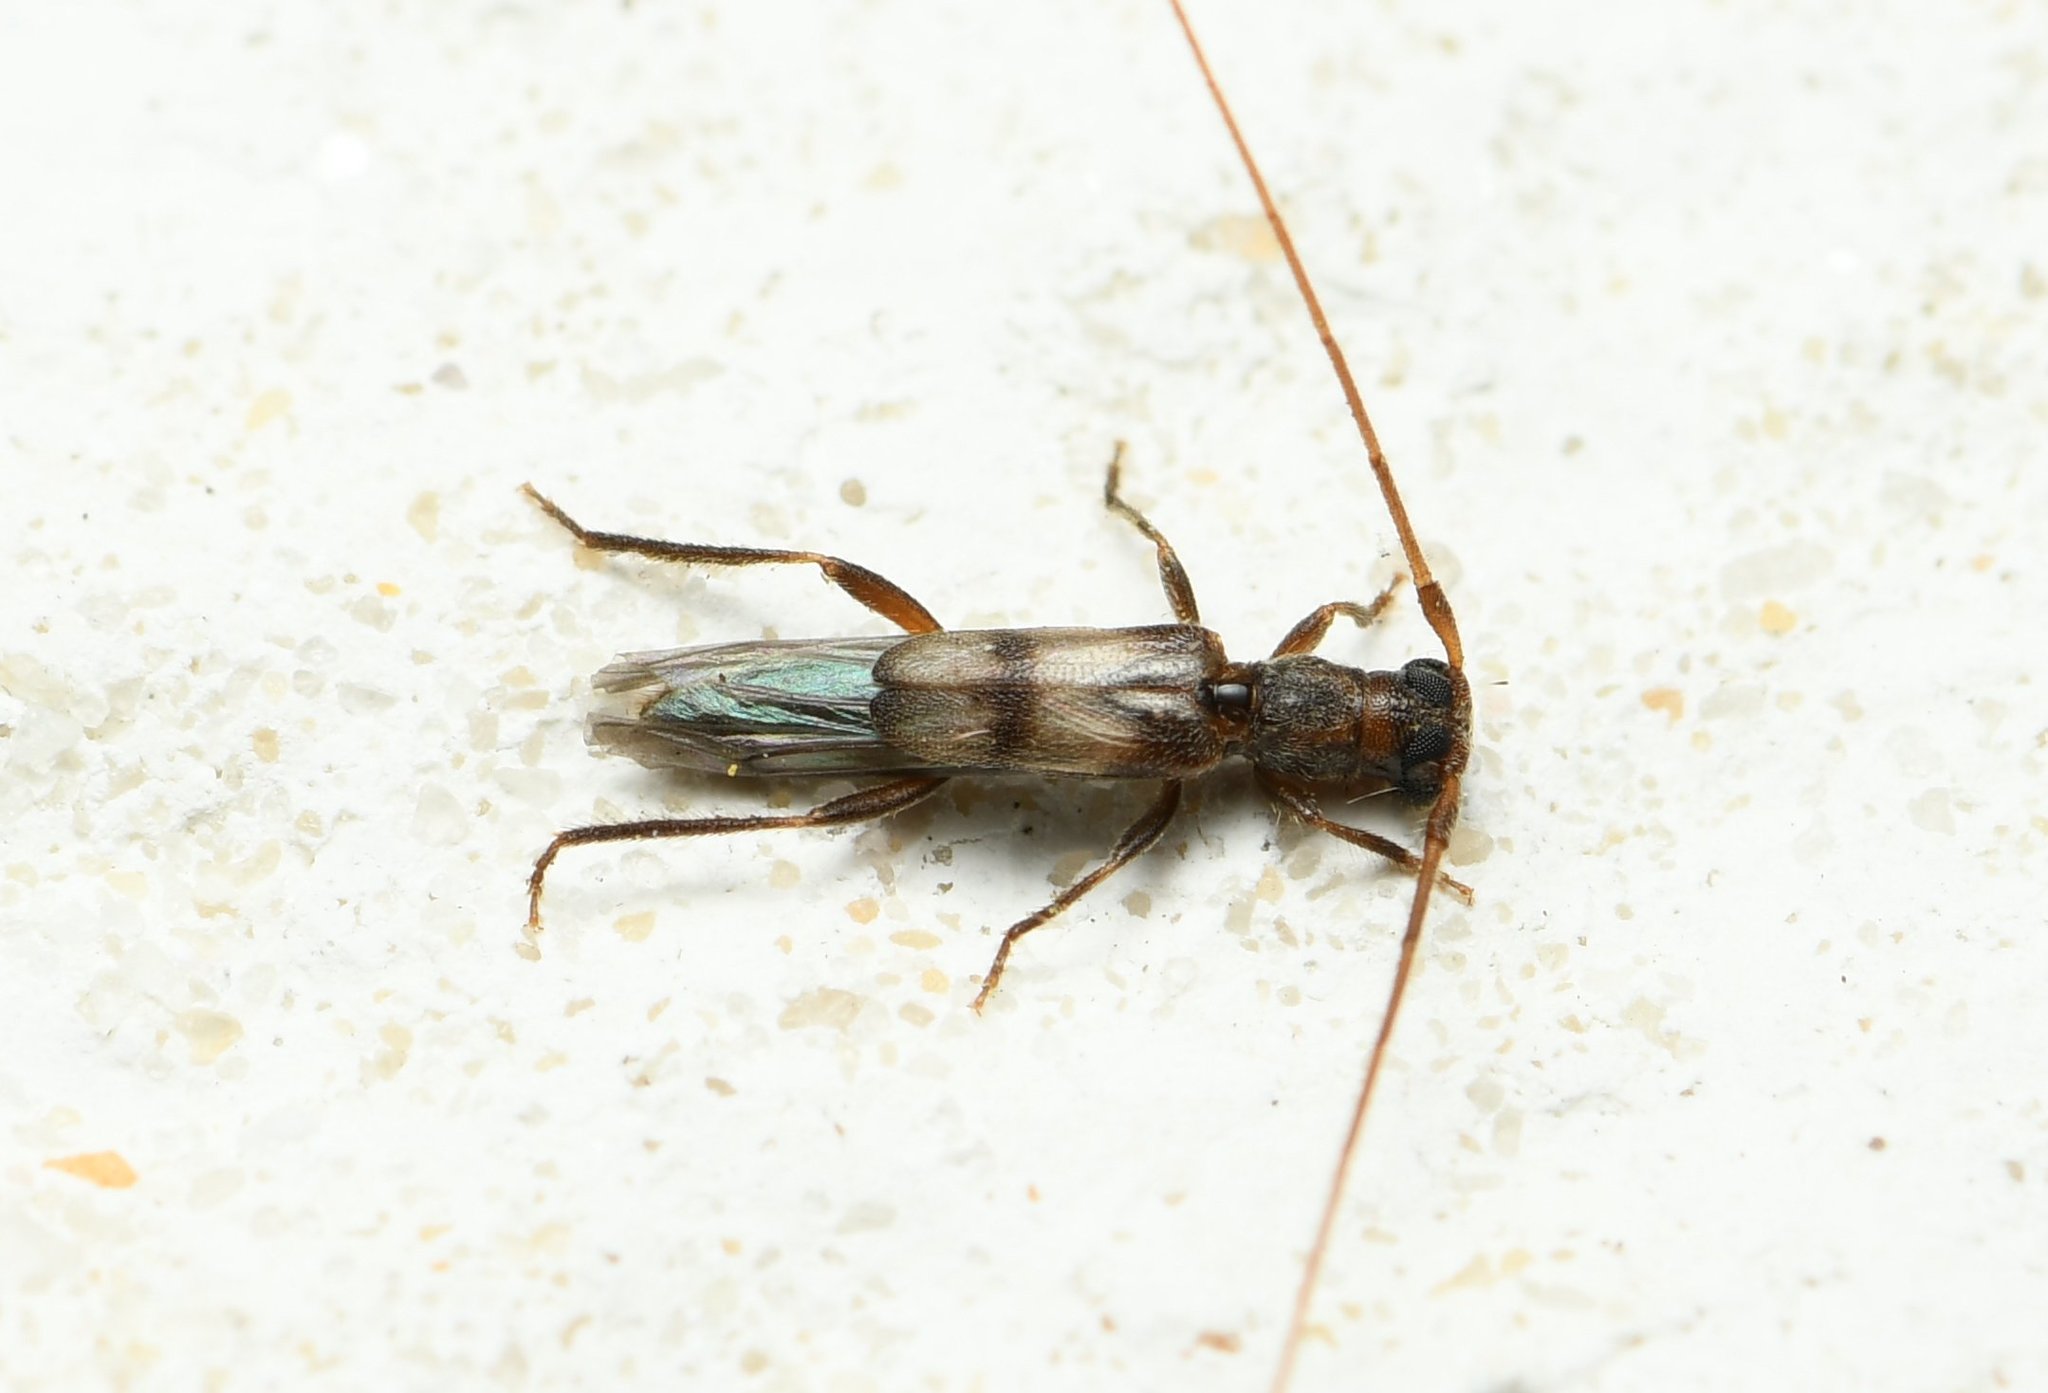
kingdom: Animalia
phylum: Arthropoda
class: Insecta
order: Coleoptera
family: Cerambycidae
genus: Methia
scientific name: Methia necydalea
